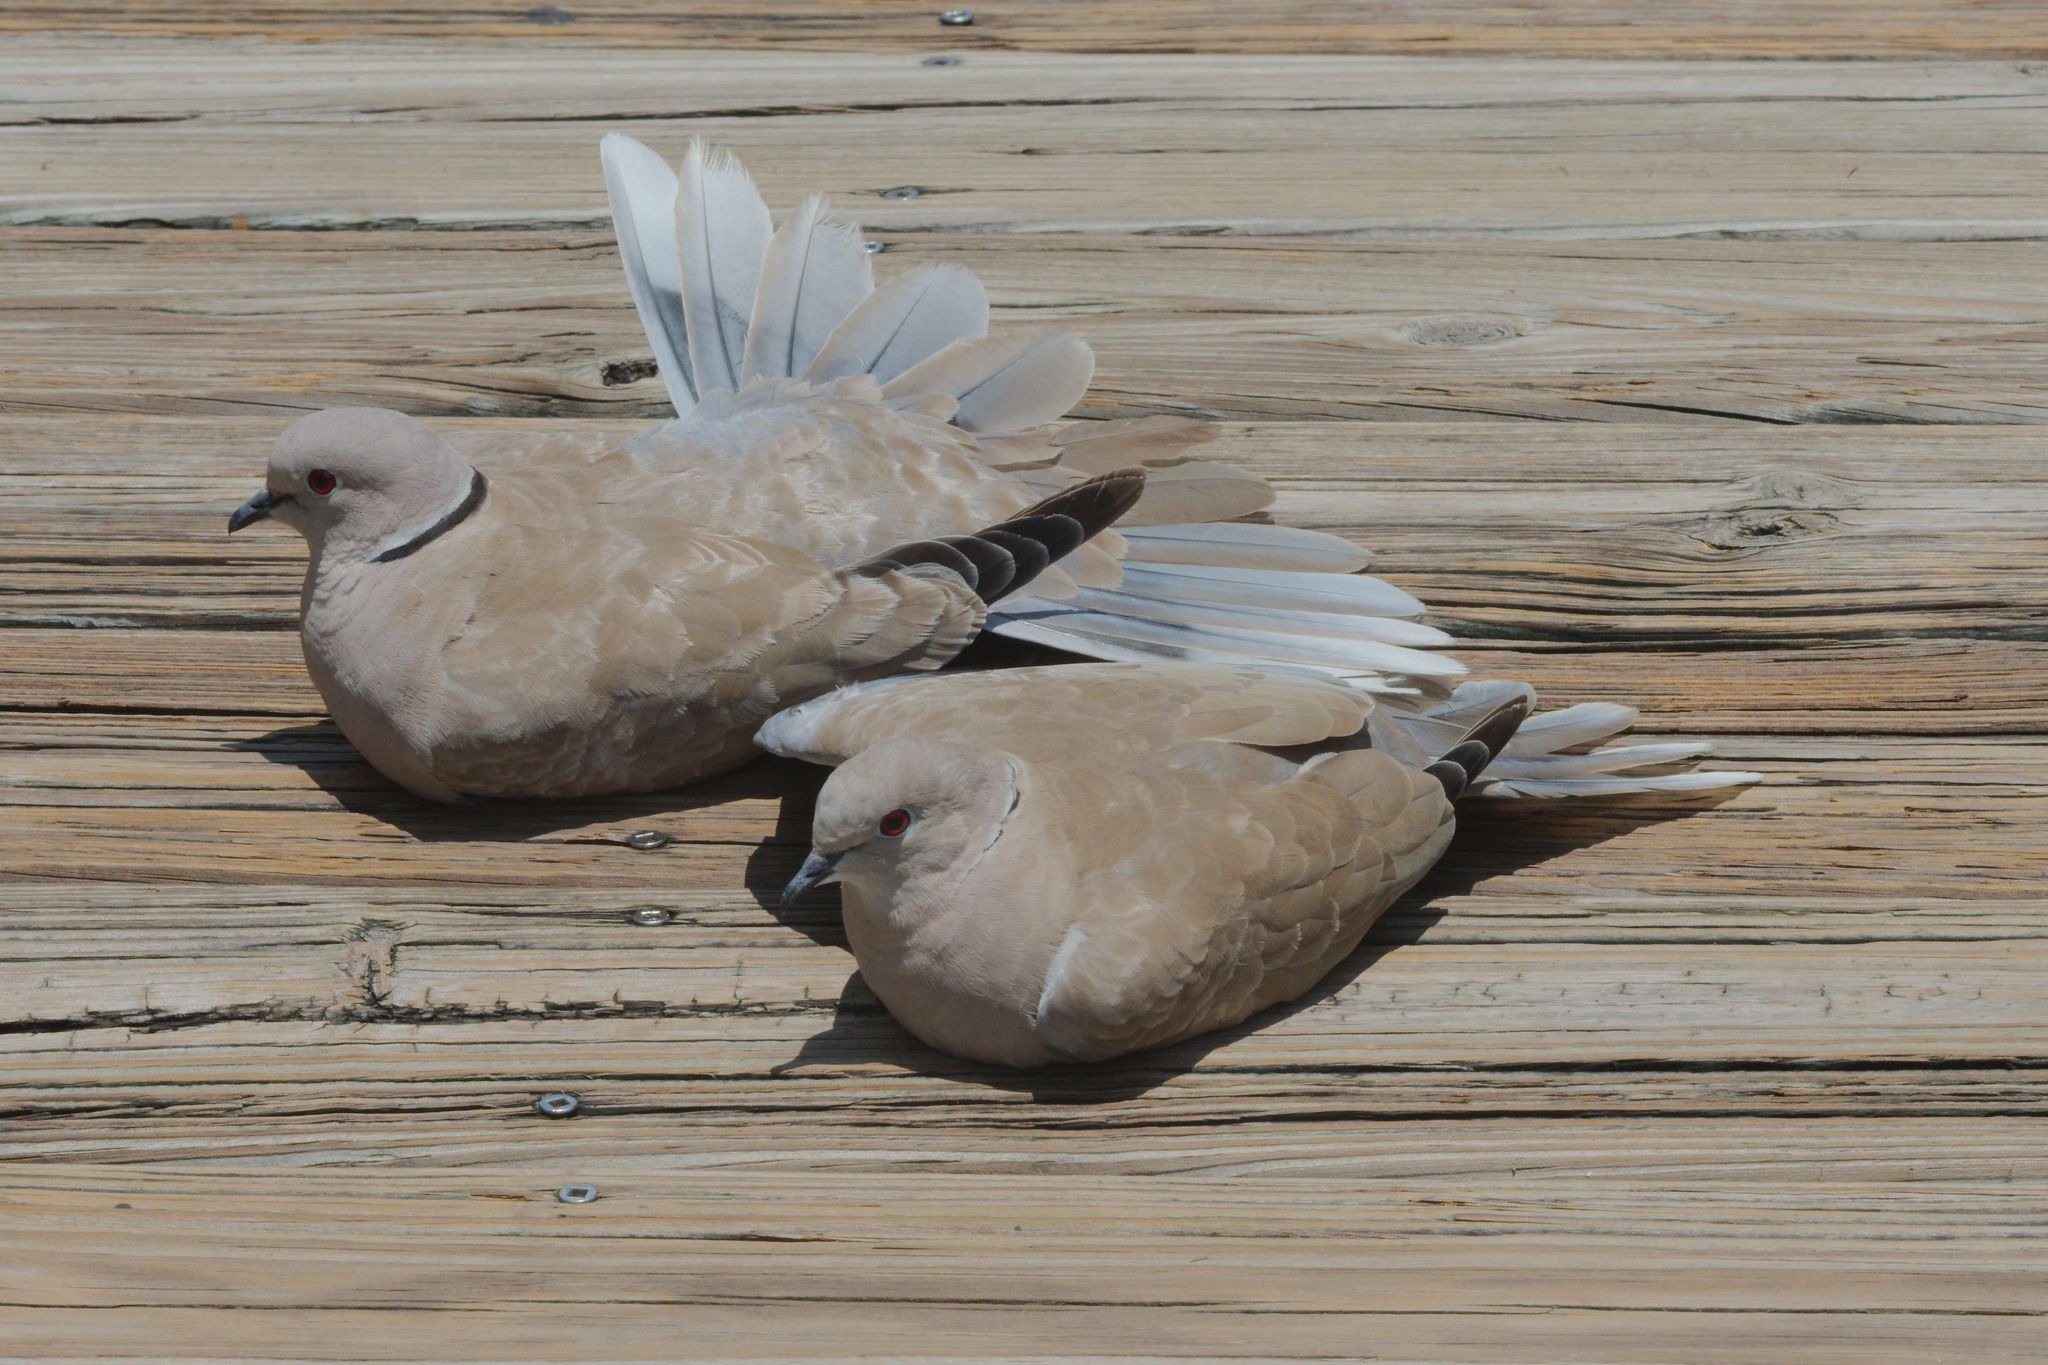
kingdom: Animalia
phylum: Chordata
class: Aves
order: Columbiformes
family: Columbidae
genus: Streptopelia
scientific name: Streptopelia decaocto
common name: Eurasian collared dove
